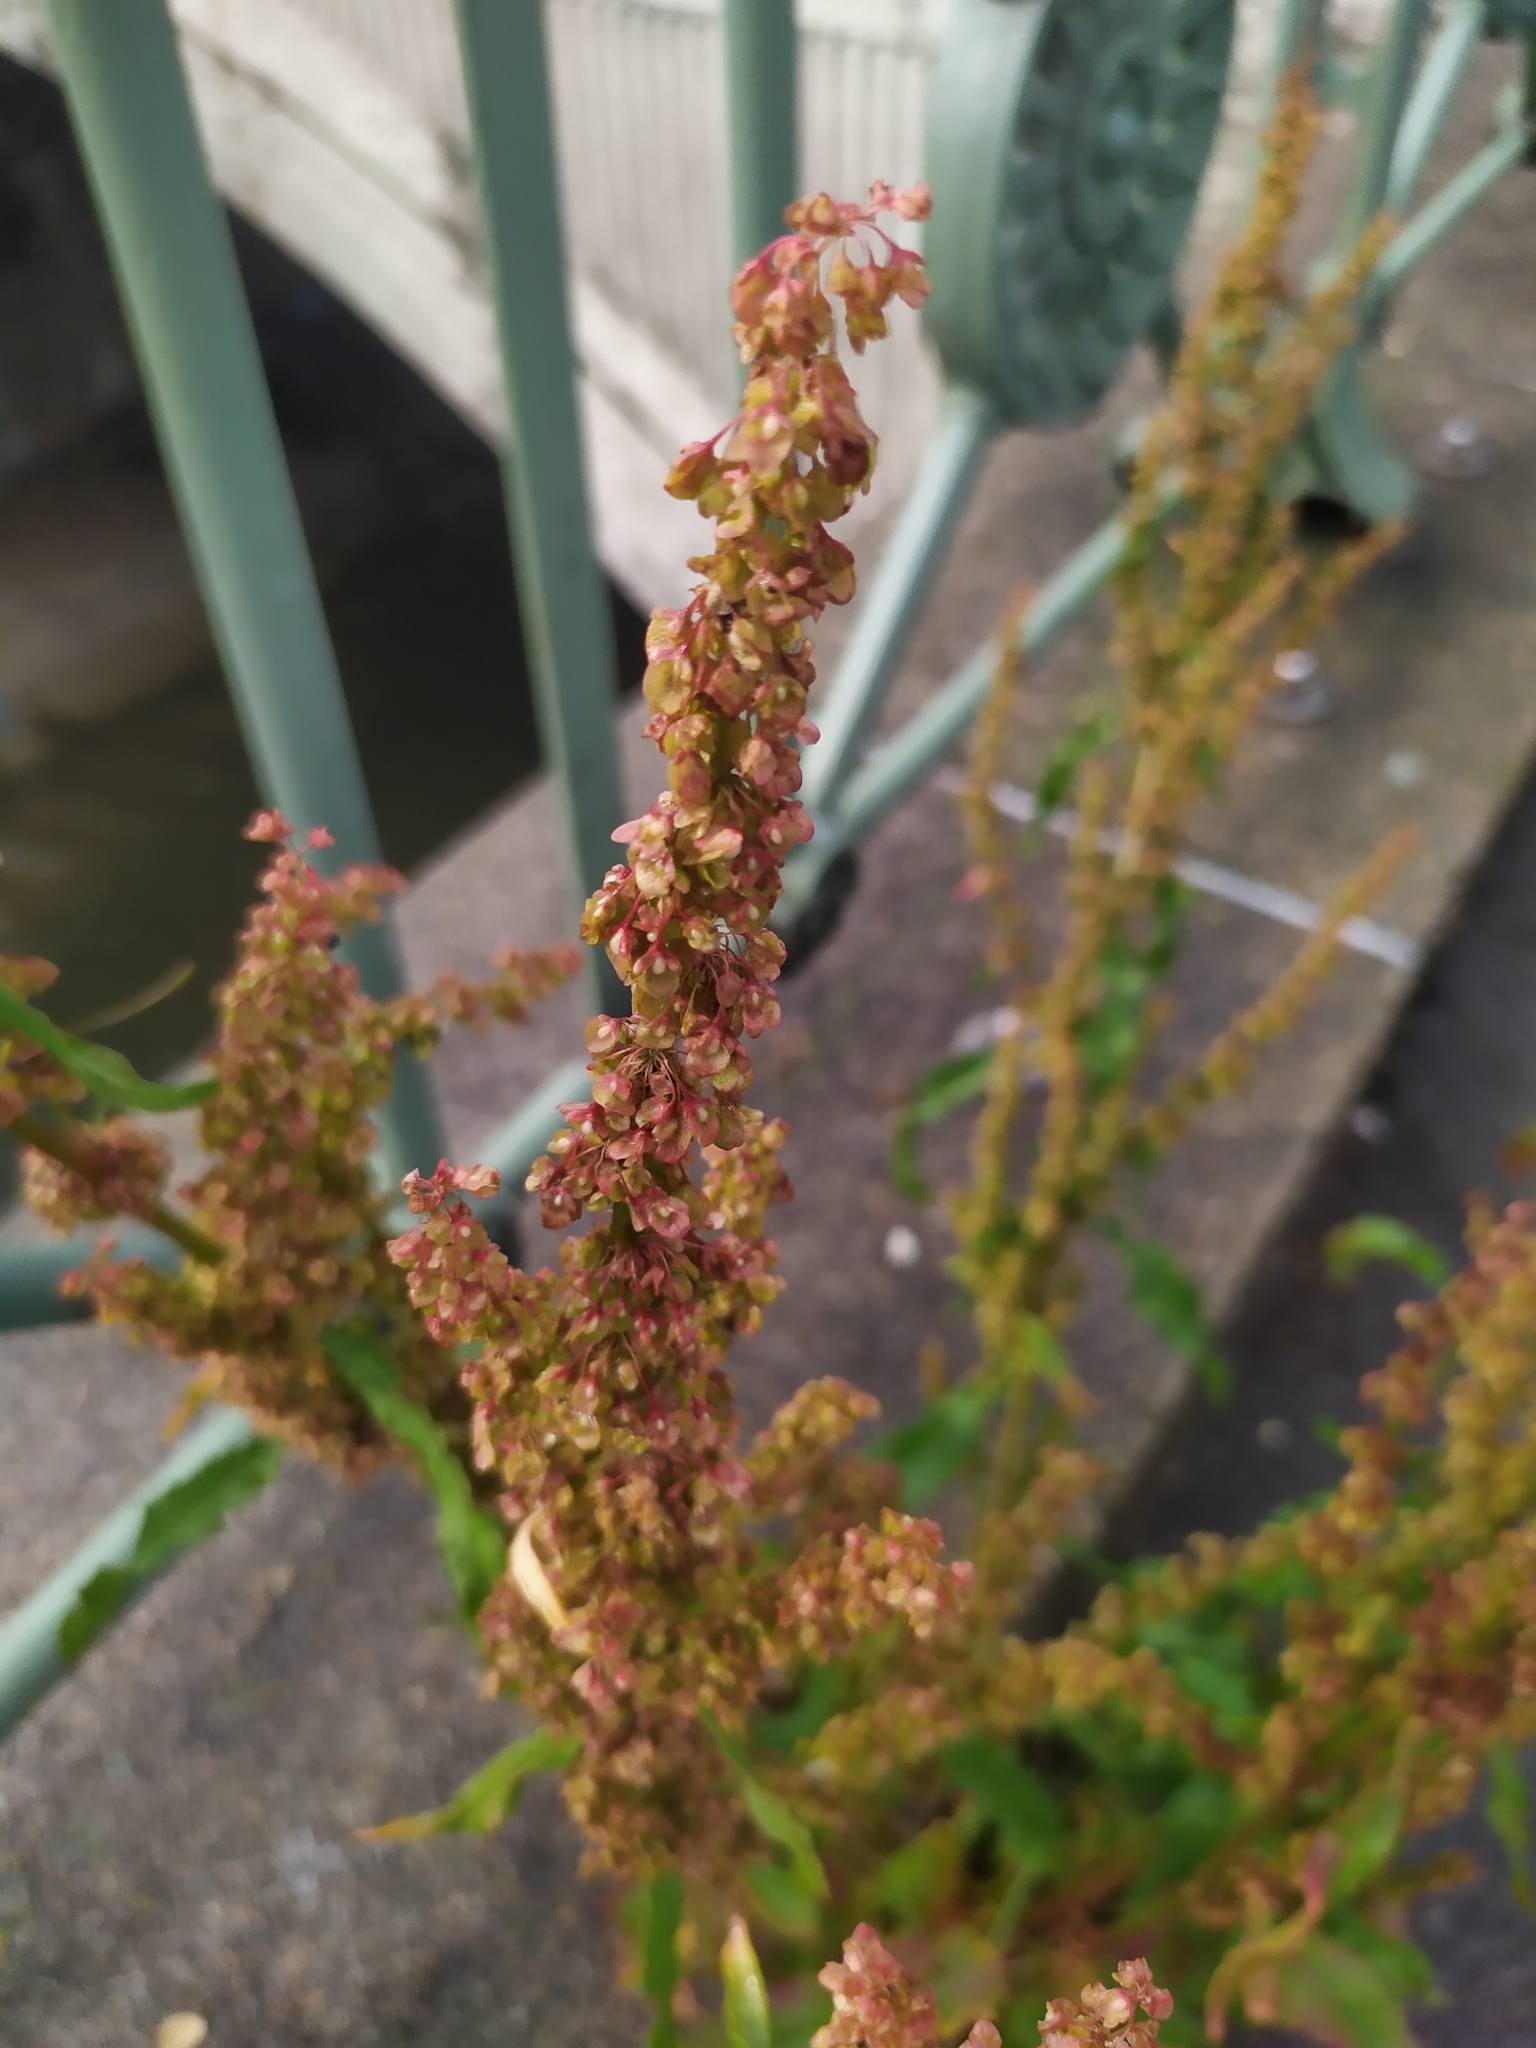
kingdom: Plantae
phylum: Tracheophyta
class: Magnoliopsida
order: Caryophyllales
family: Polygonaceae
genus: Rumex
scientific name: Rumex crispus
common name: Curled dock
